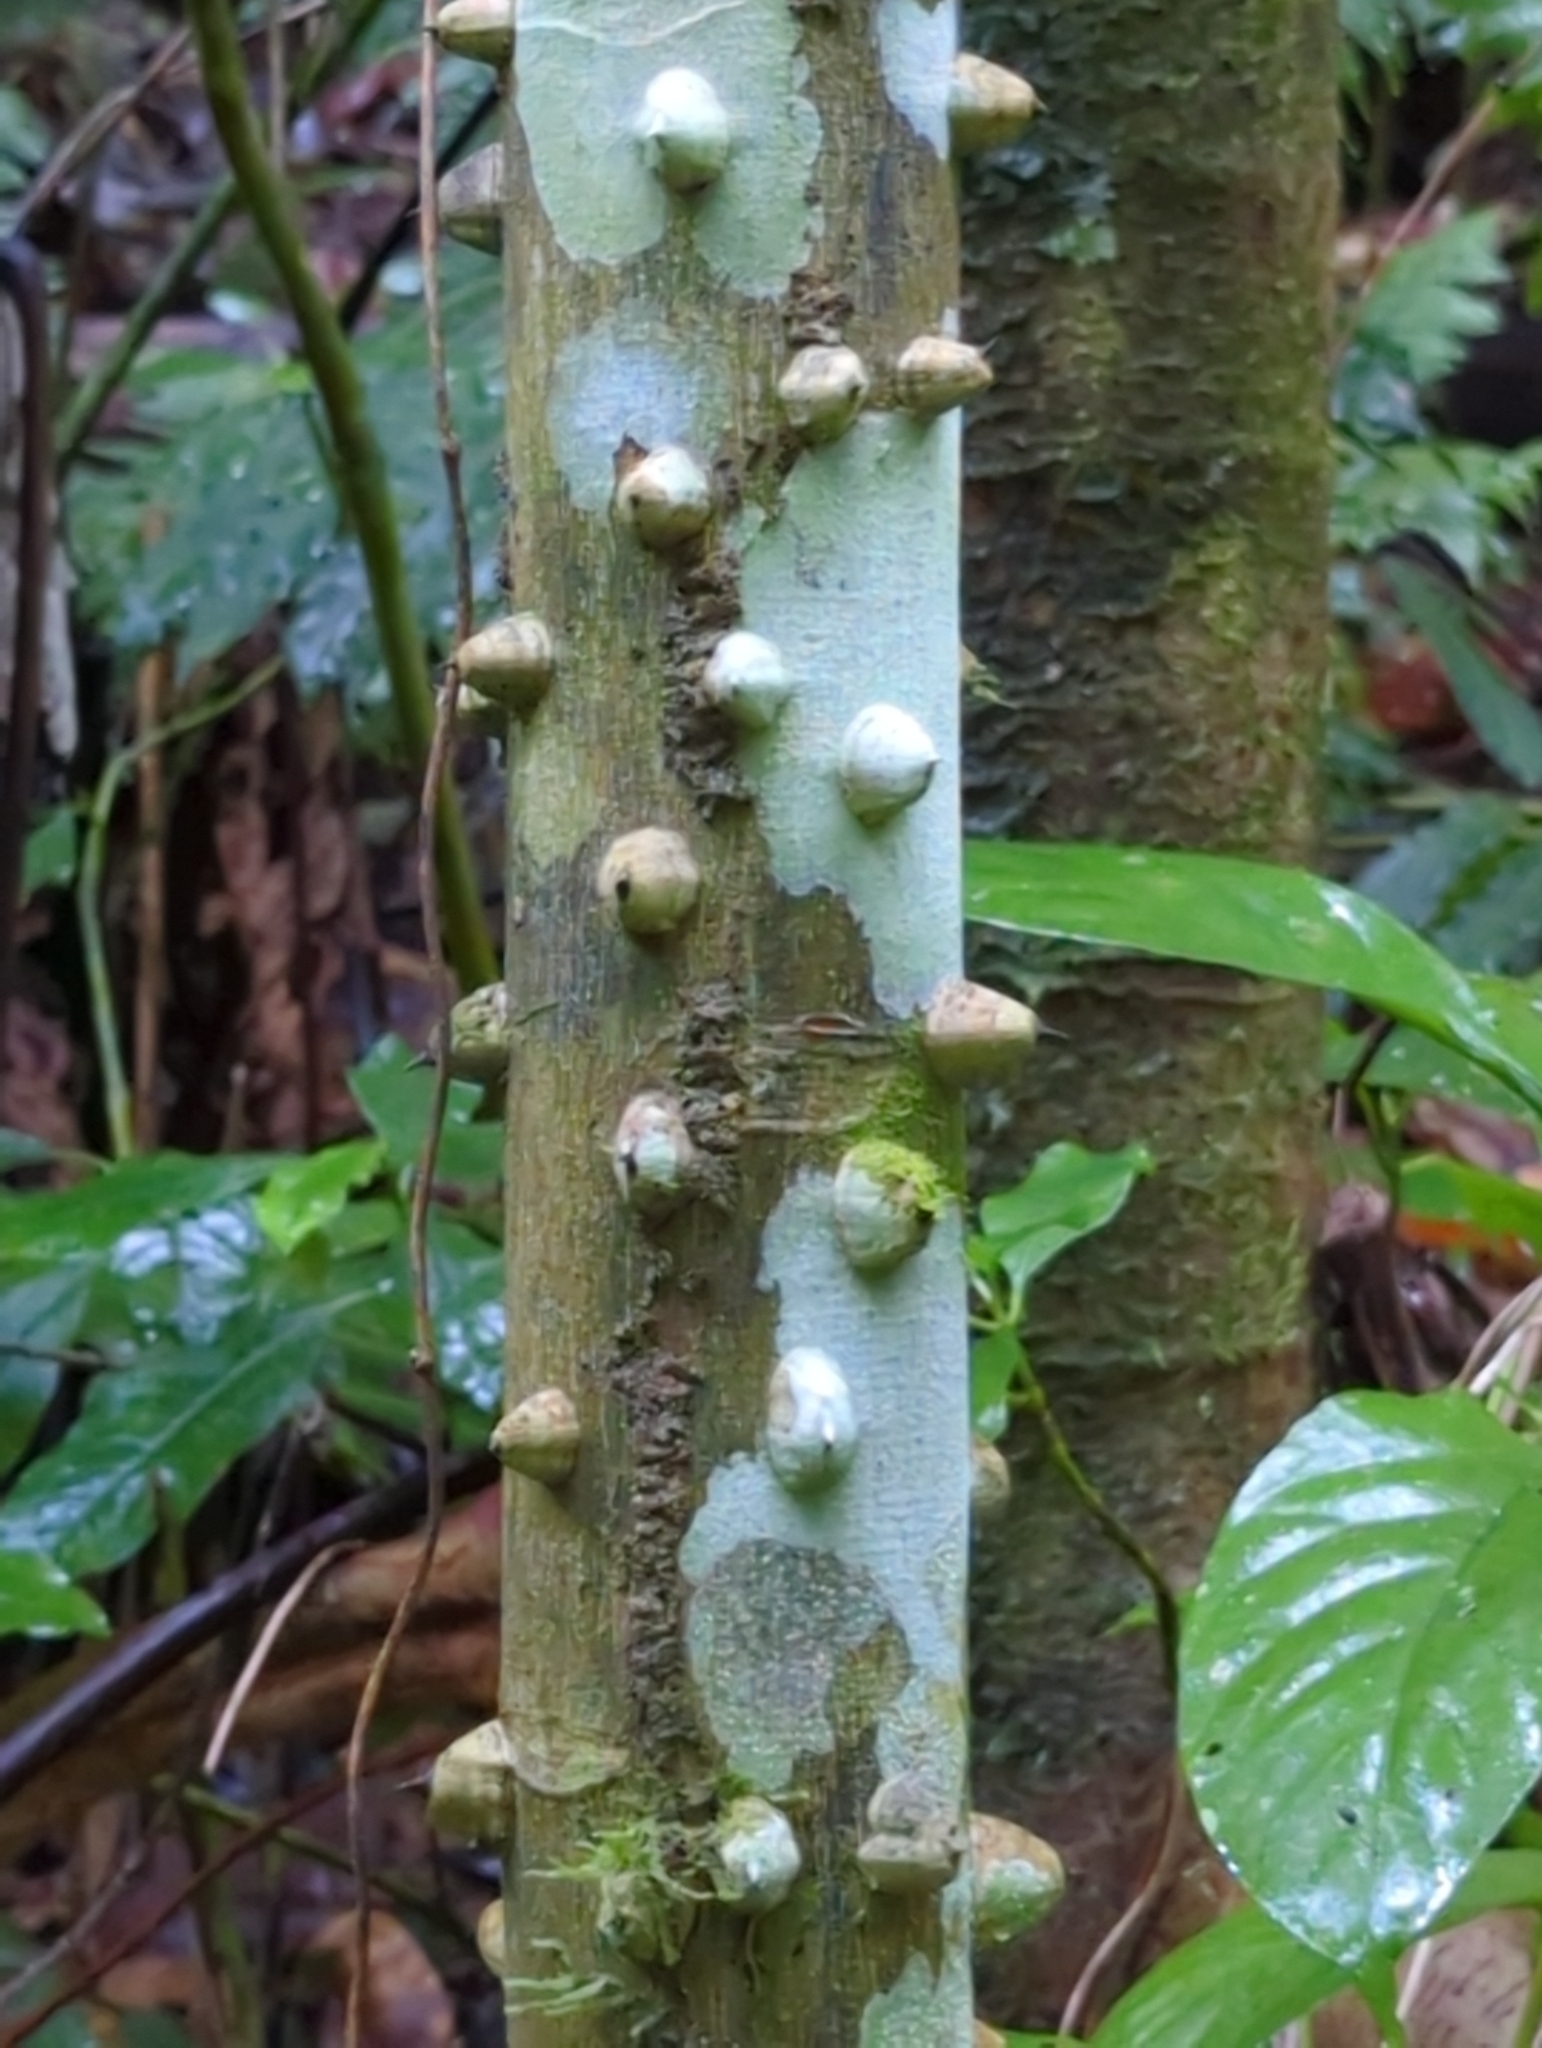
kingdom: Plantae
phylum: Tracheophyta
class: Magnoliopsida
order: Sapindales
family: Rutaceae
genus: Zanthoxylum
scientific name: Zanthoxylum martinicense
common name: Yellow prickle
